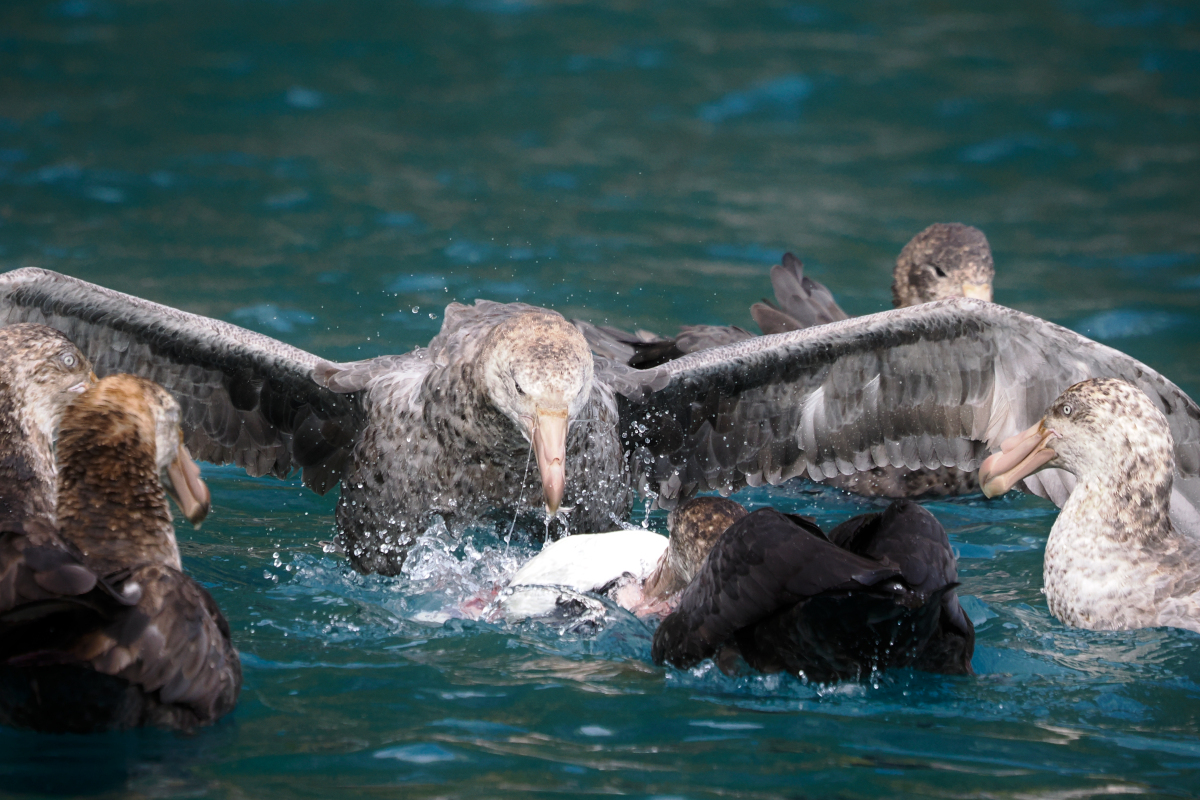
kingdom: Animalia
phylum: Chordata
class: Aves
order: Procellariiformes
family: Procellariidae
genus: Macronectes
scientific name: Macronectes halli
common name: Northern giant petrel
